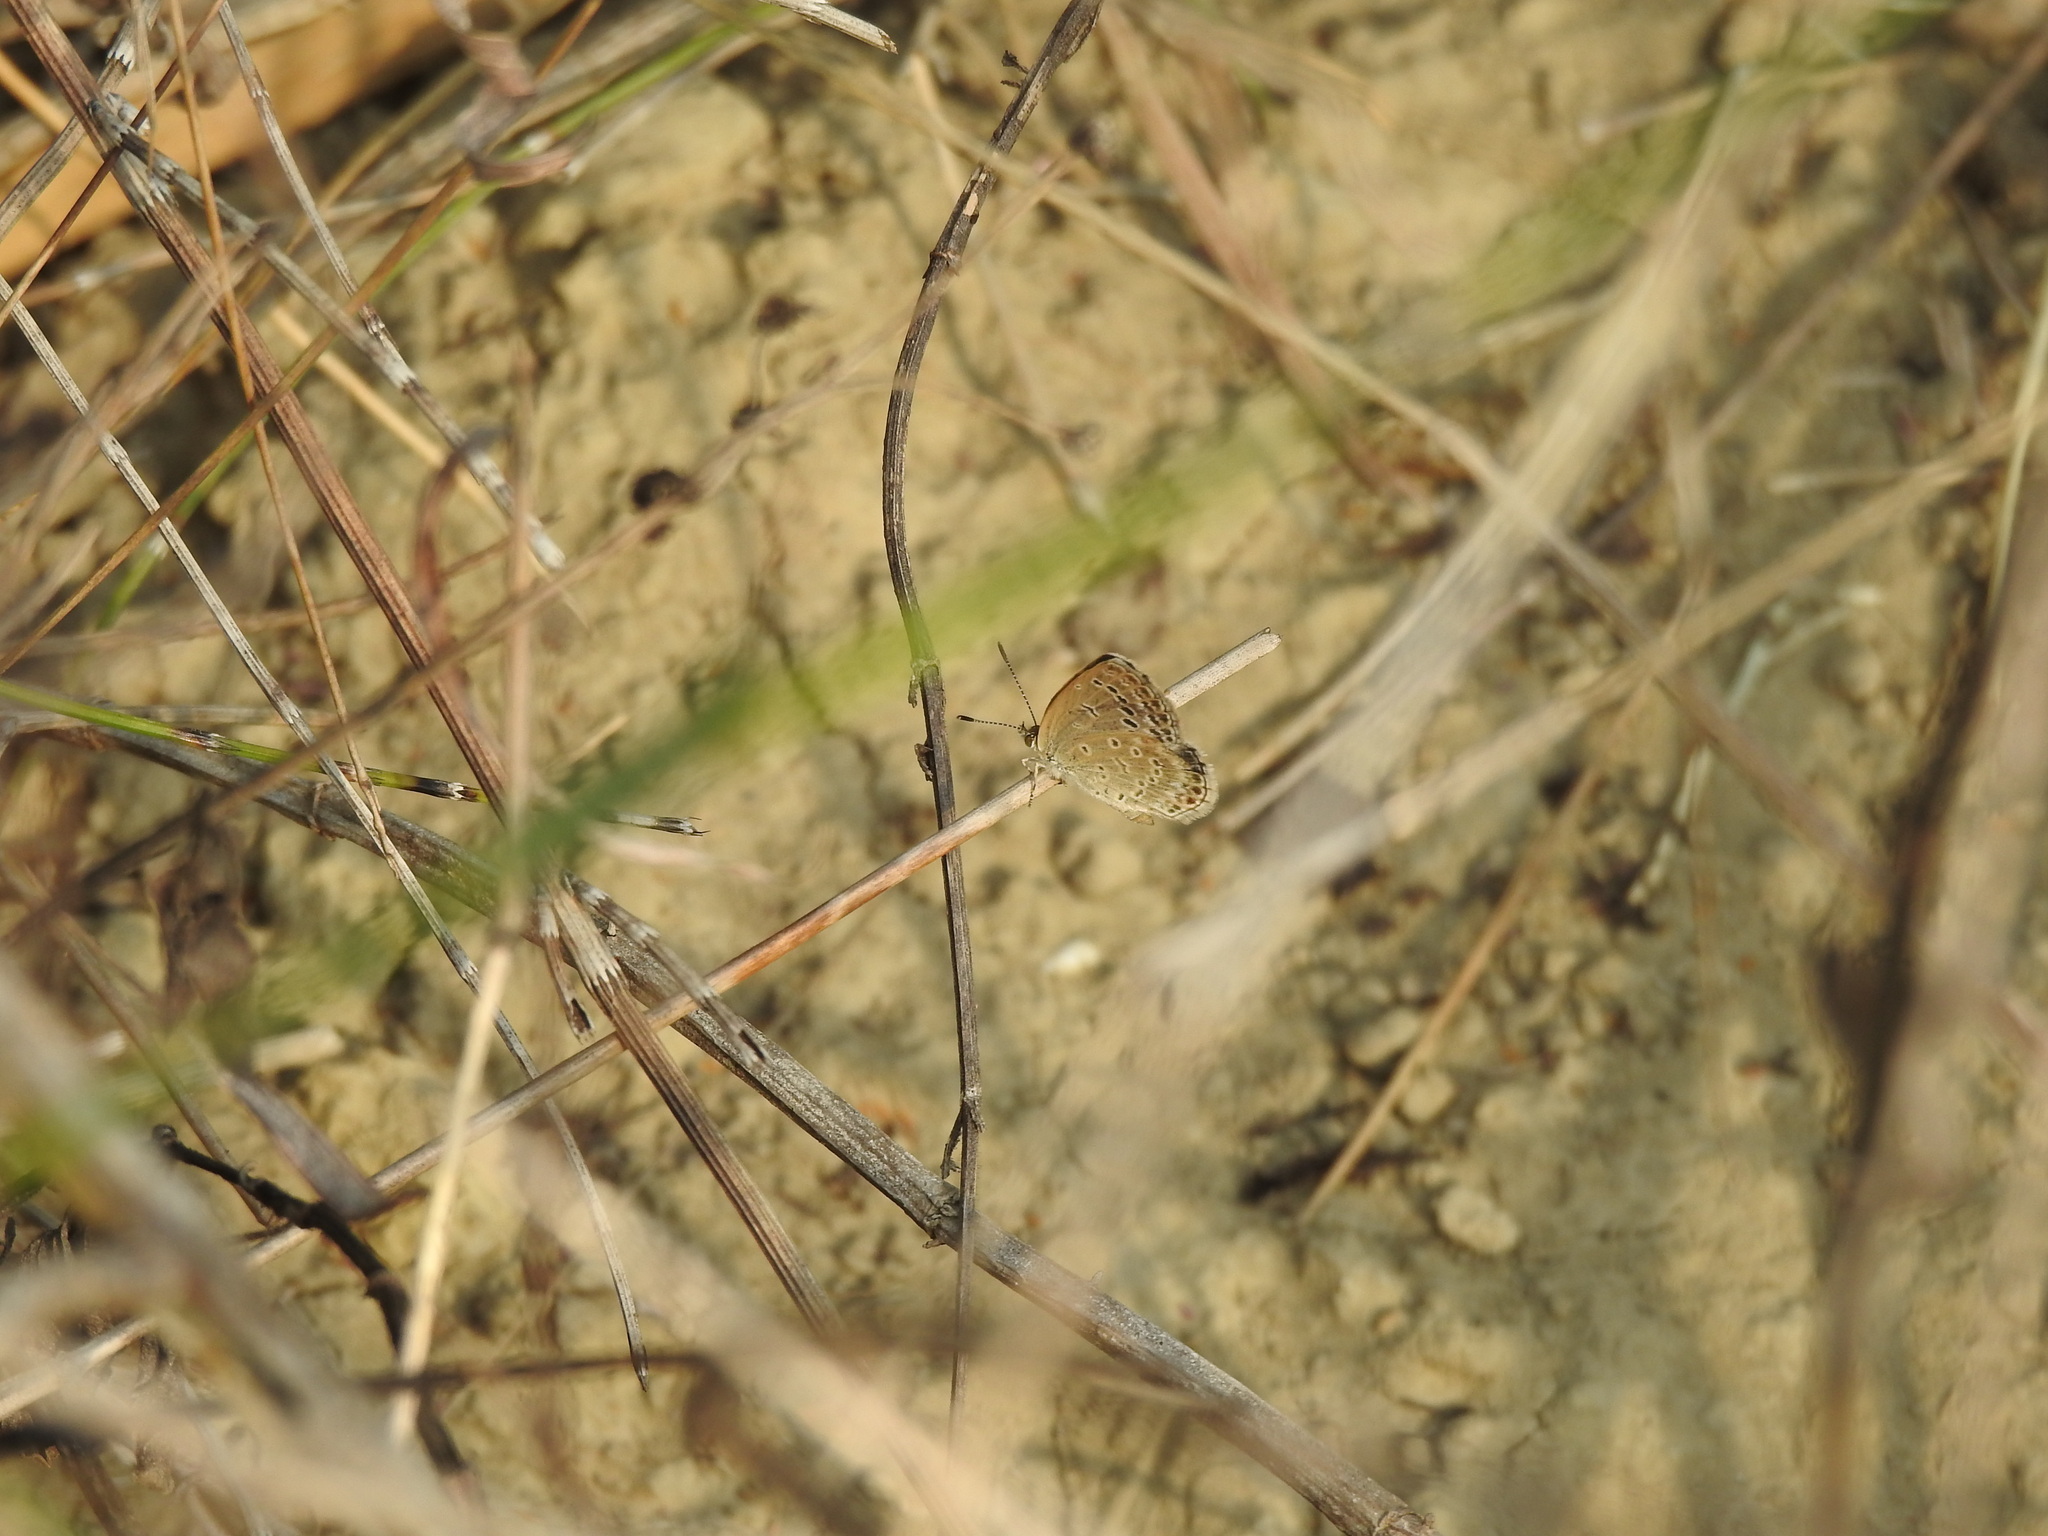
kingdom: Animalia
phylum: Arthropoda
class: Insecta
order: Lepidoptera
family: Lycaenidae
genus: Pseudozizeeria
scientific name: Pseudozizeeria maha
